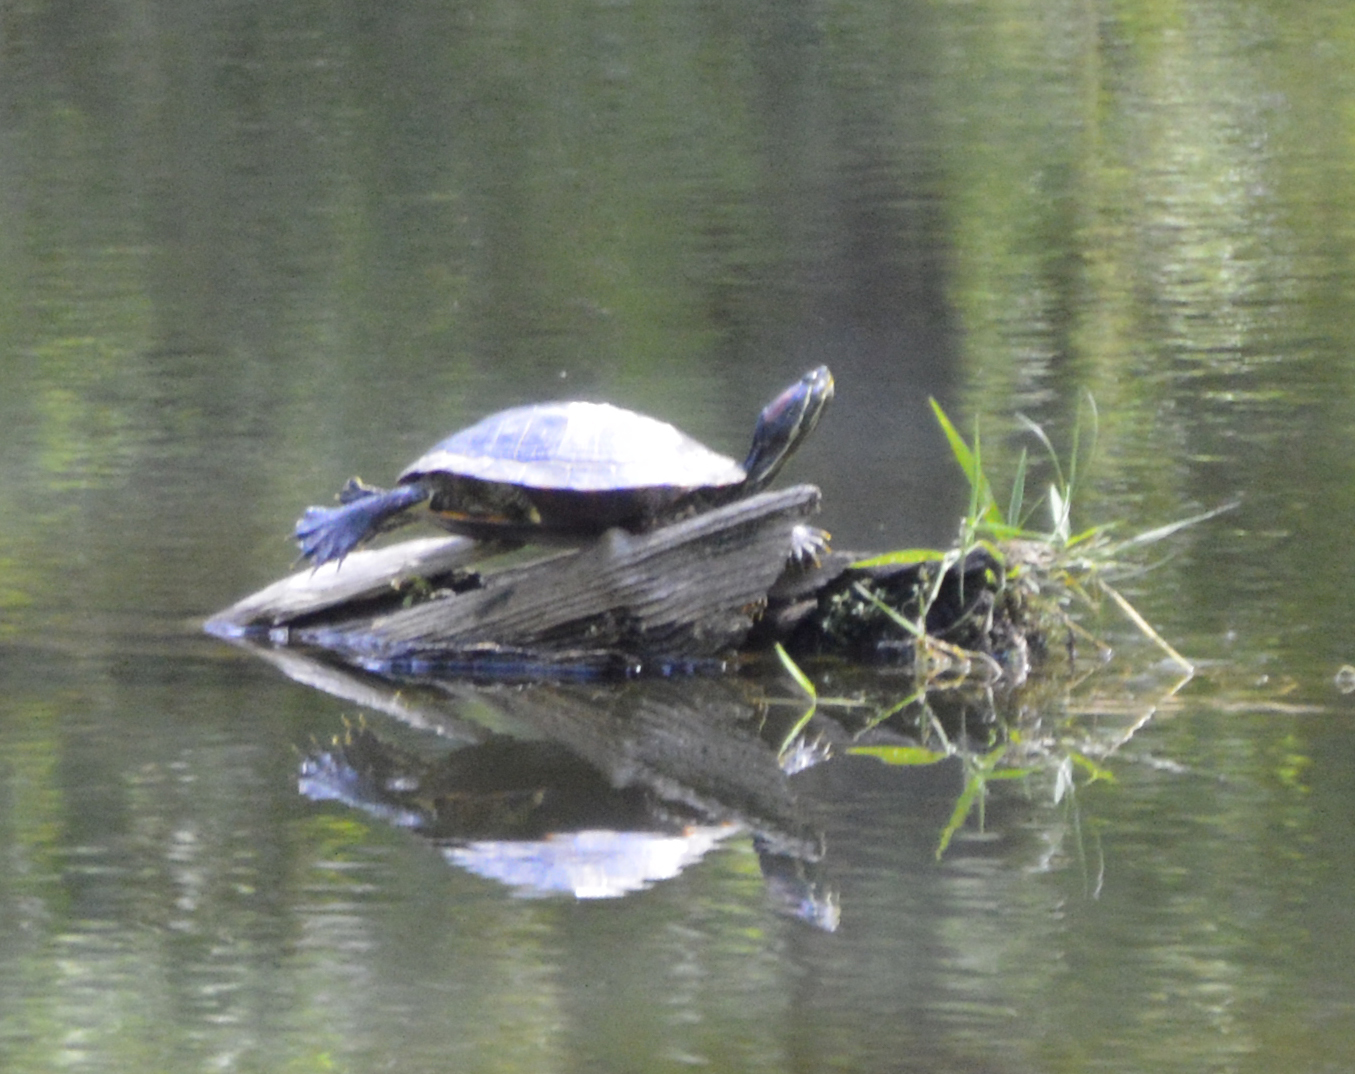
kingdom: Animalia
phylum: Chordata
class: Testudines
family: Emydidae
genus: Trachemys
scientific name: Trachemys scripta
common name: Slider
